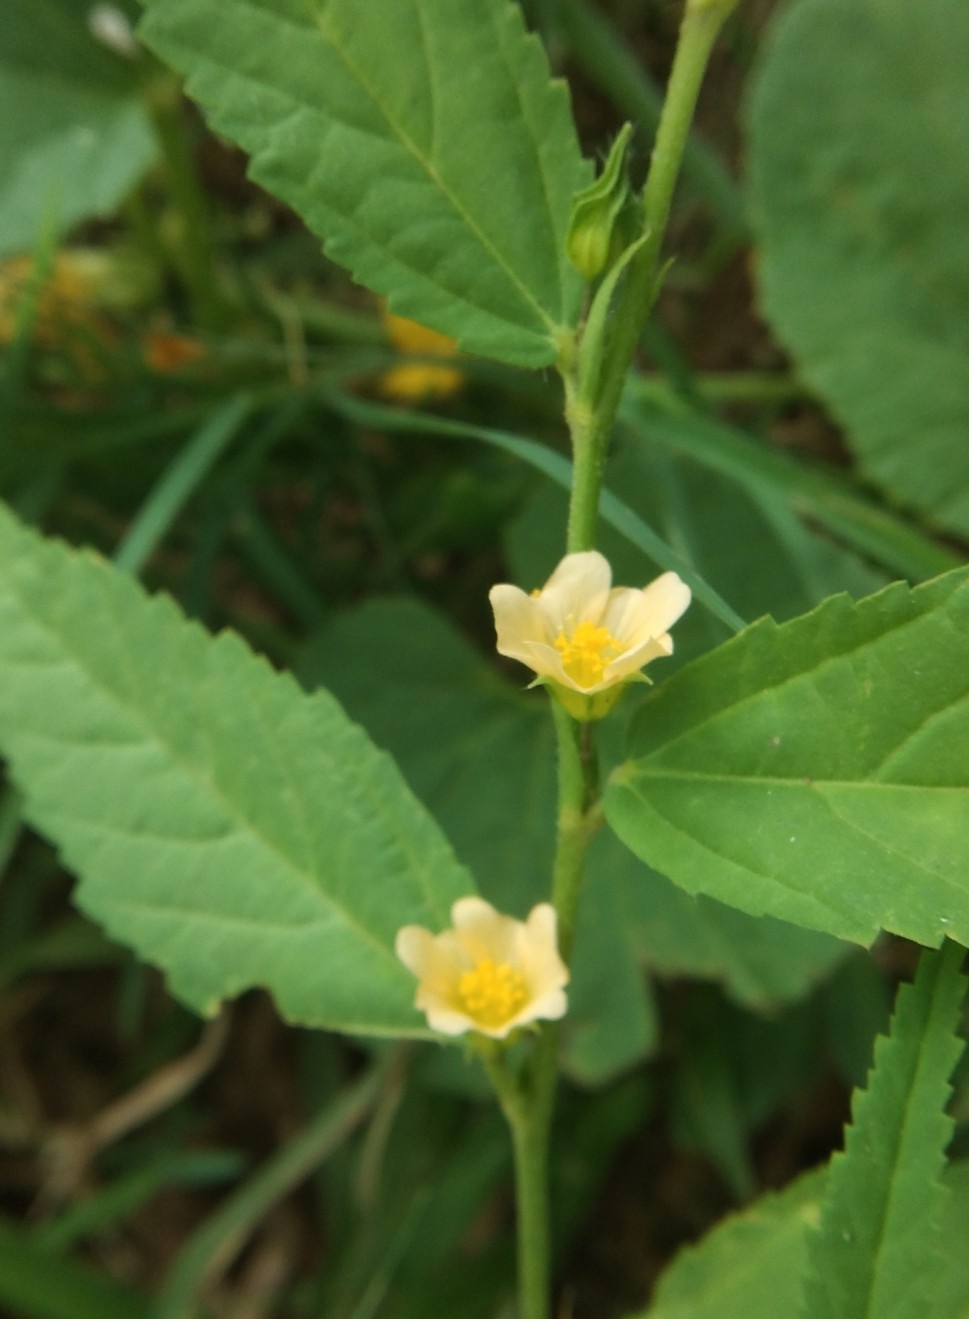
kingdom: Plantae
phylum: Tracheophyta
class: Magnoliopsida
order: Malvales
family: Malvaceae
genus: Sida
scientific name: Sida rhombifolia
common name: Queensland-hemp
